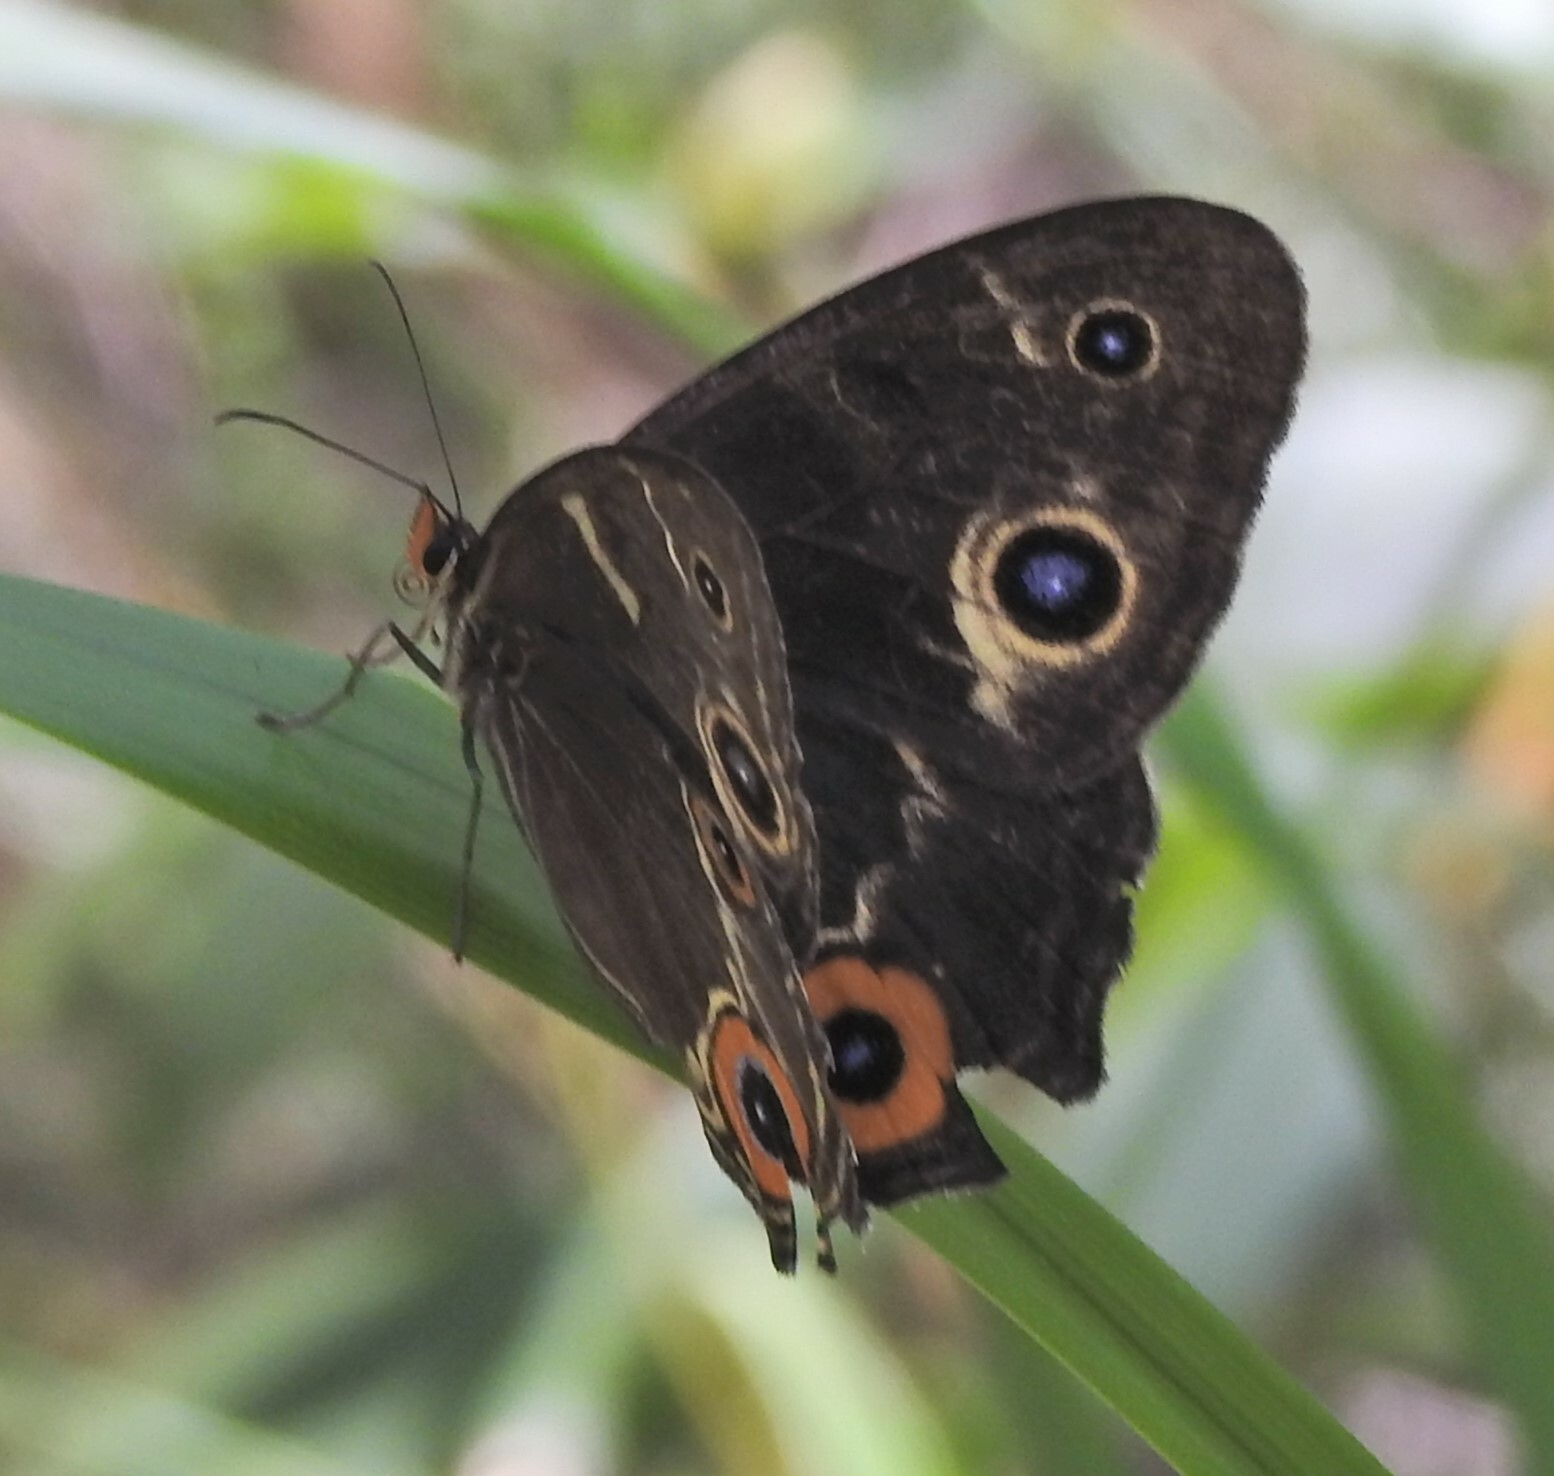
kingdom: Animalia
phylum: Arthropoda
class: Insecta
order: Lepidoptera
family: Nymphalidae
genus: Tisiphone
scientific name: Tisiphone abeona
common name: Swordgrass brown
